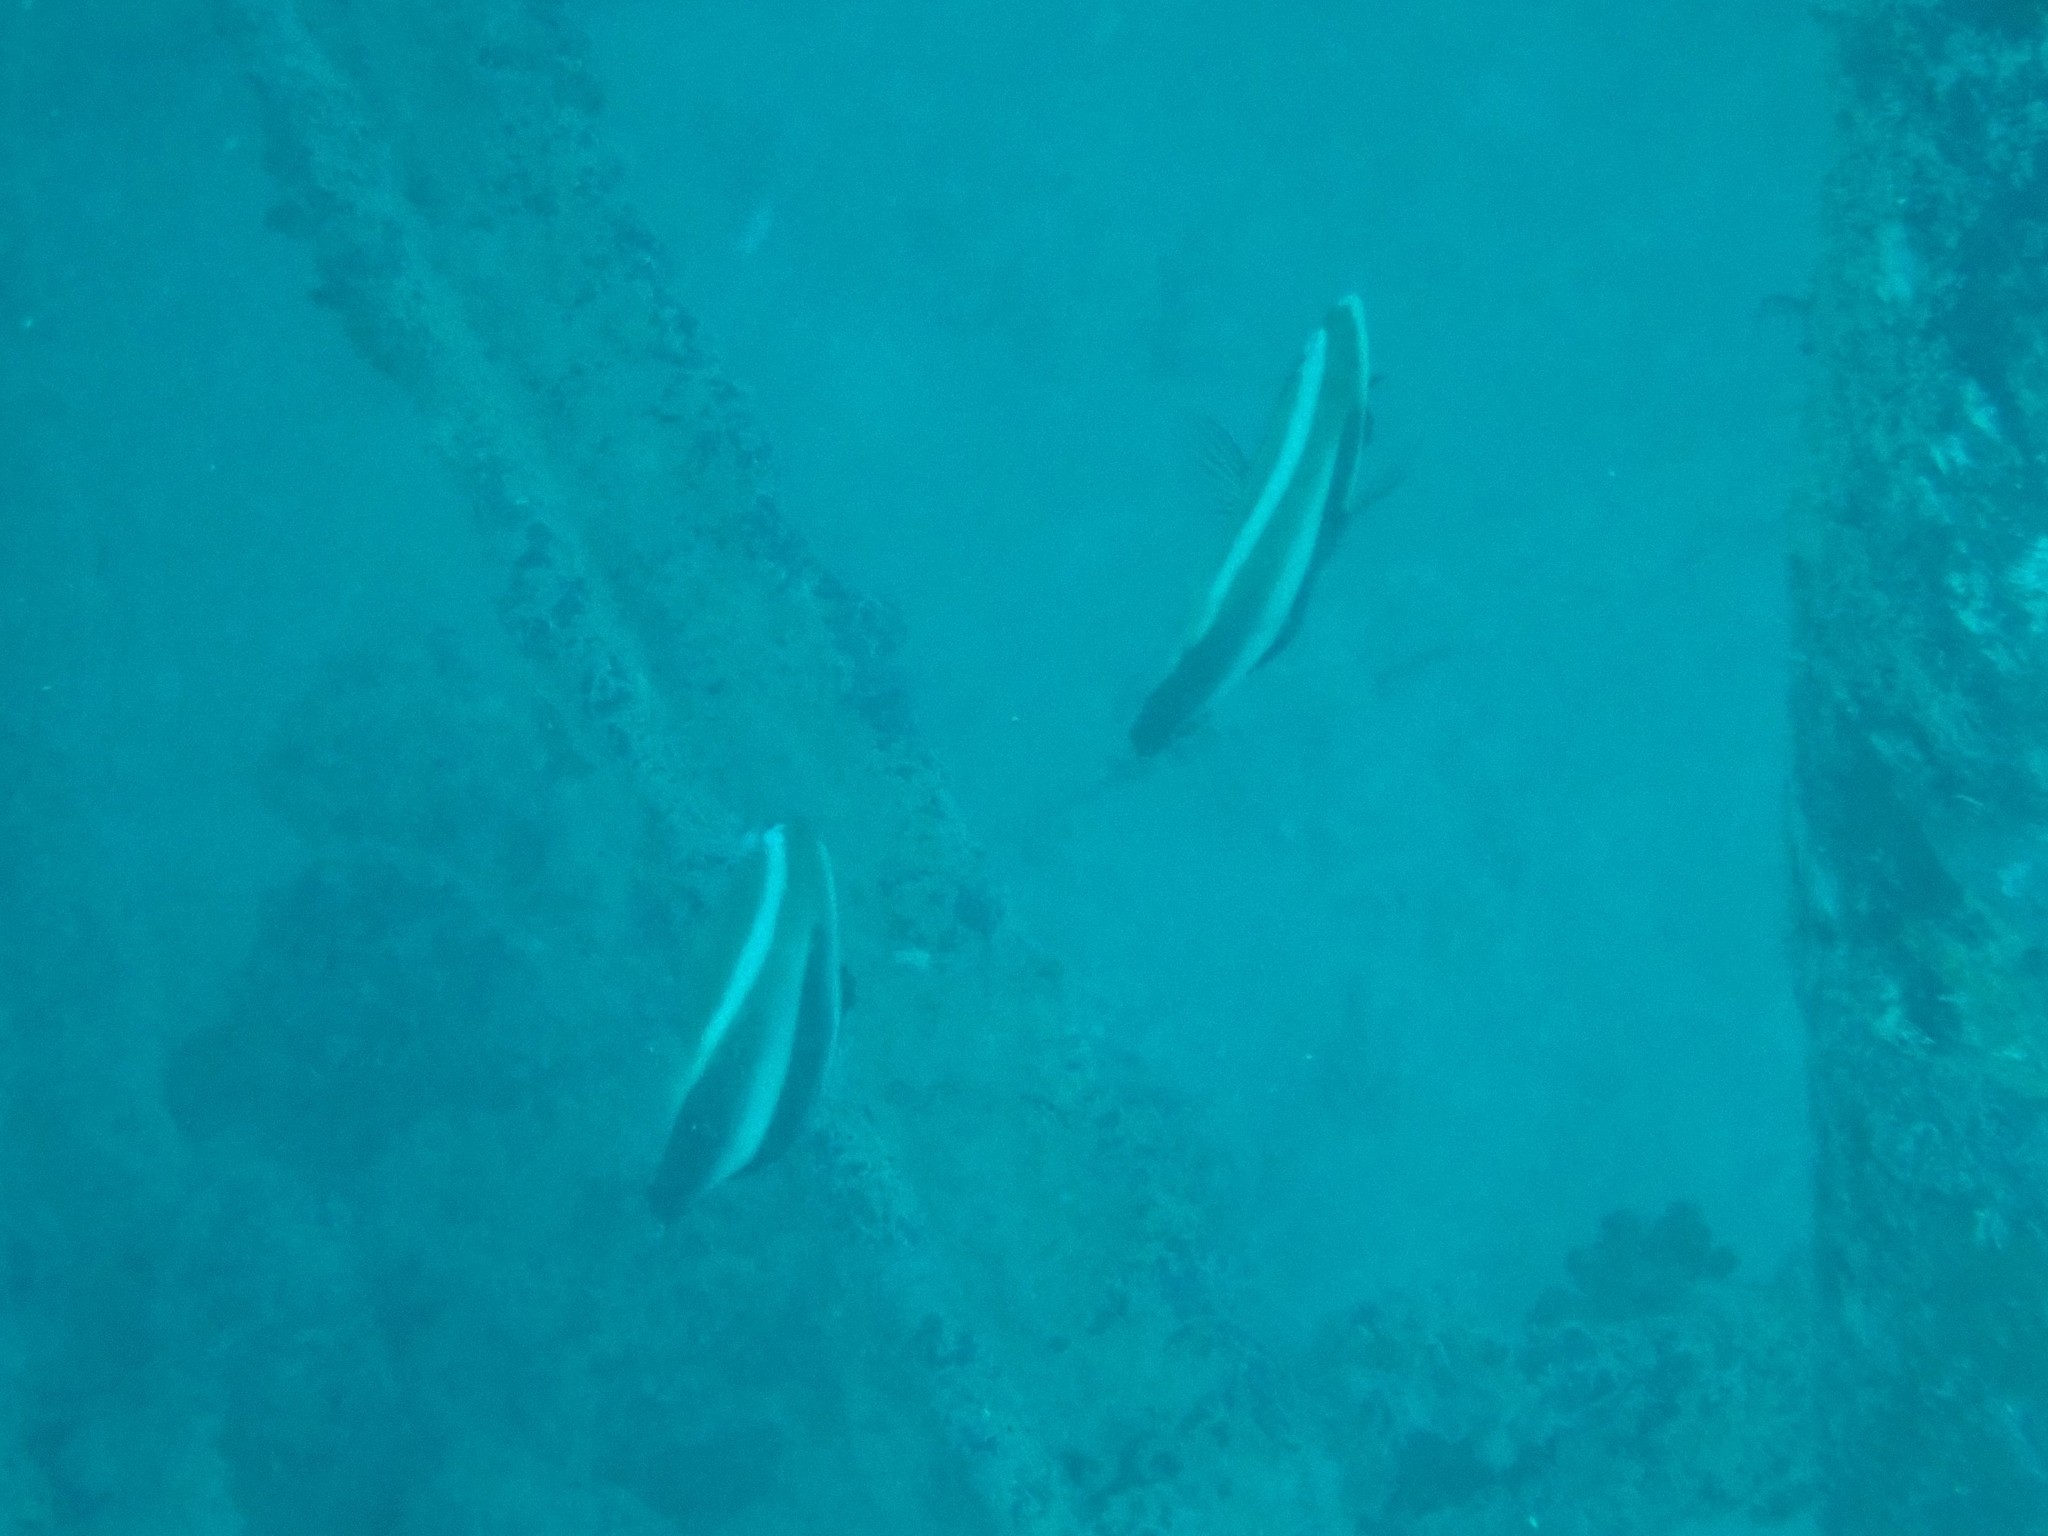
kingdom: Animalia
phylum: Chordata
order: Perciformes
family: Chaetodontidae
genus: Heniochus
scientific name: Heniochus pleurotaenia
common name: Indian ocean bannerfish
